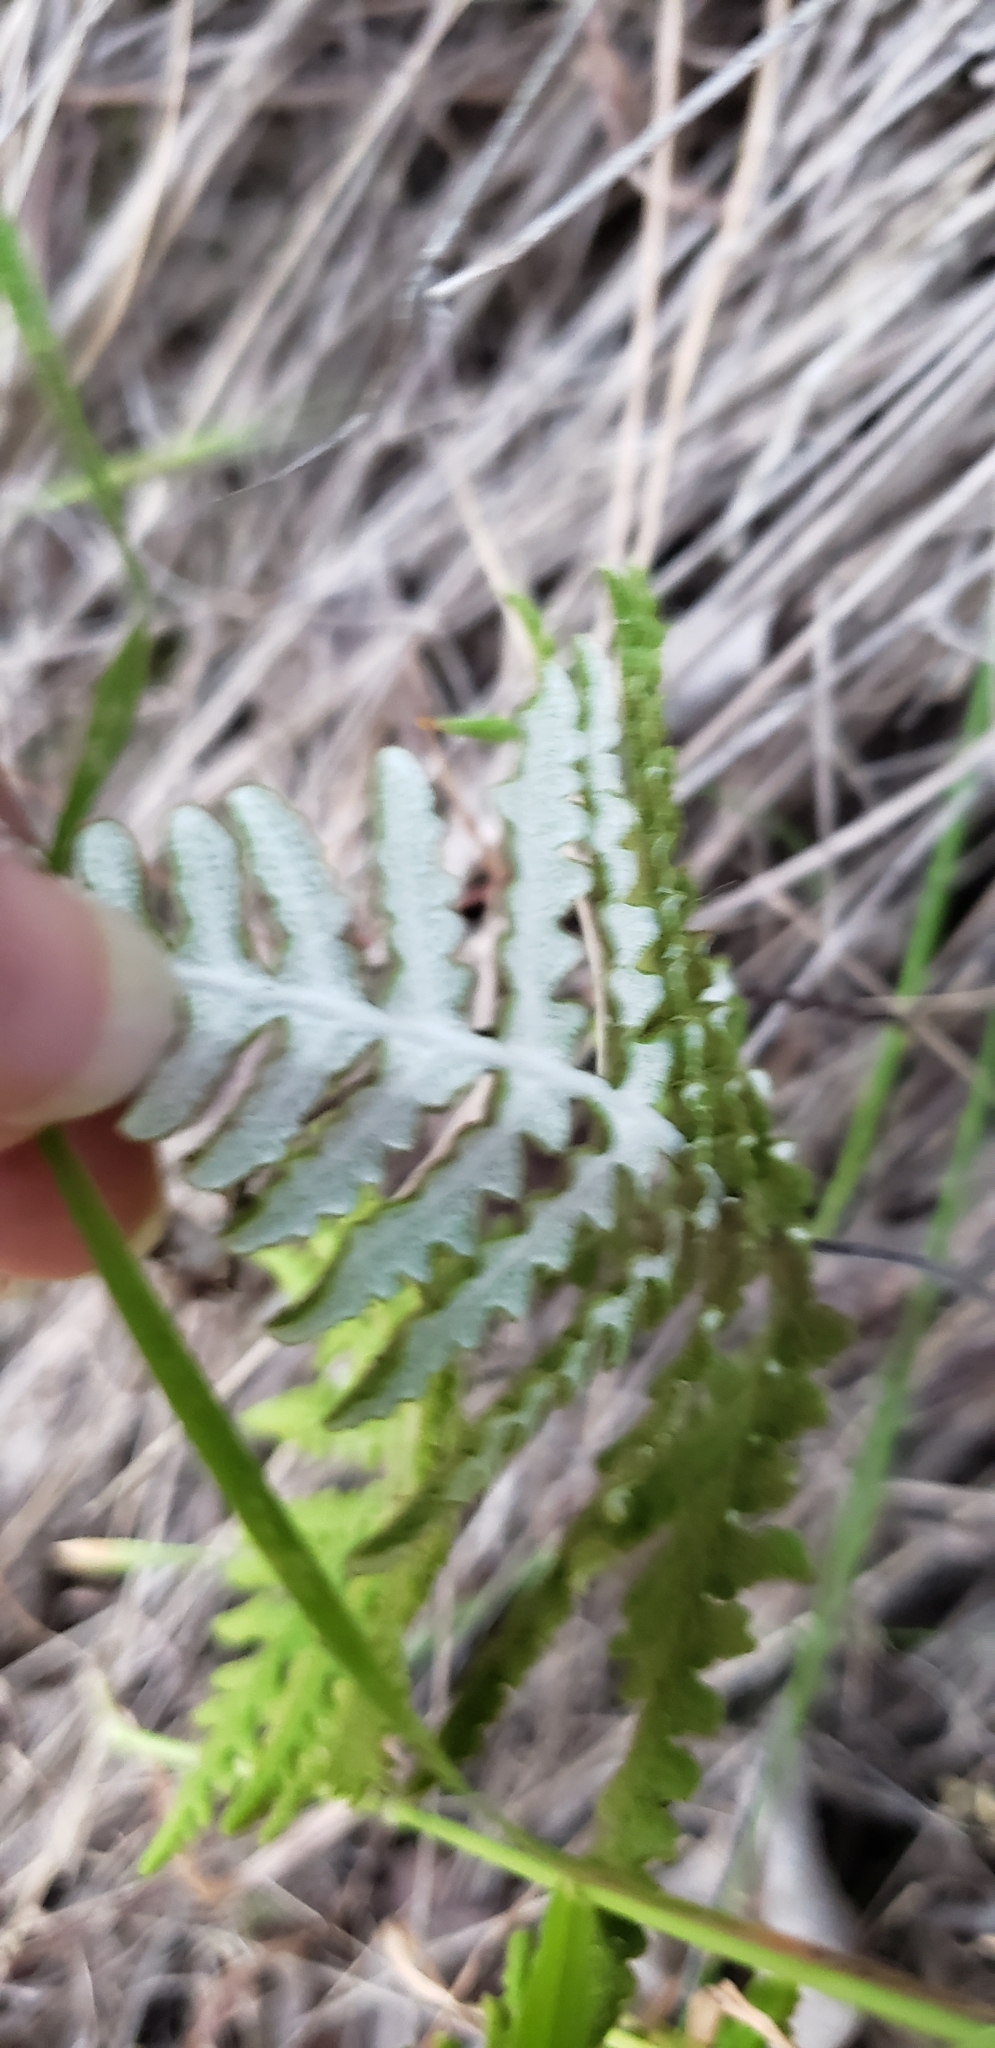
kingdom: Plantae
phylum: Tracheophyta
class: Polypodiopsida
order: Polypodiales
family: Pteridaceae
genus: Pentagramma
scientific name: Pentagramma glanduloviscida
